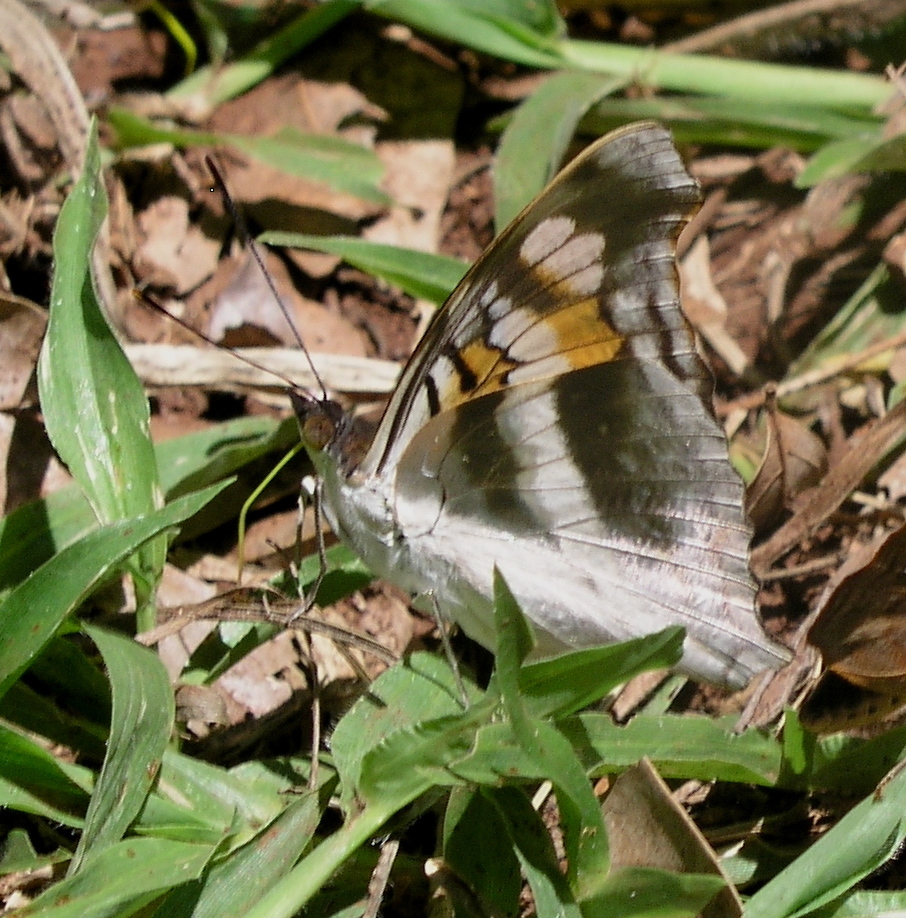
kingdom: Animalia
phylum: Arthropoda
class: Insecta
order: Lepidoptera
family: Nymphalidae
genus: Doxocopa
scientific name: Doxocopa linda
